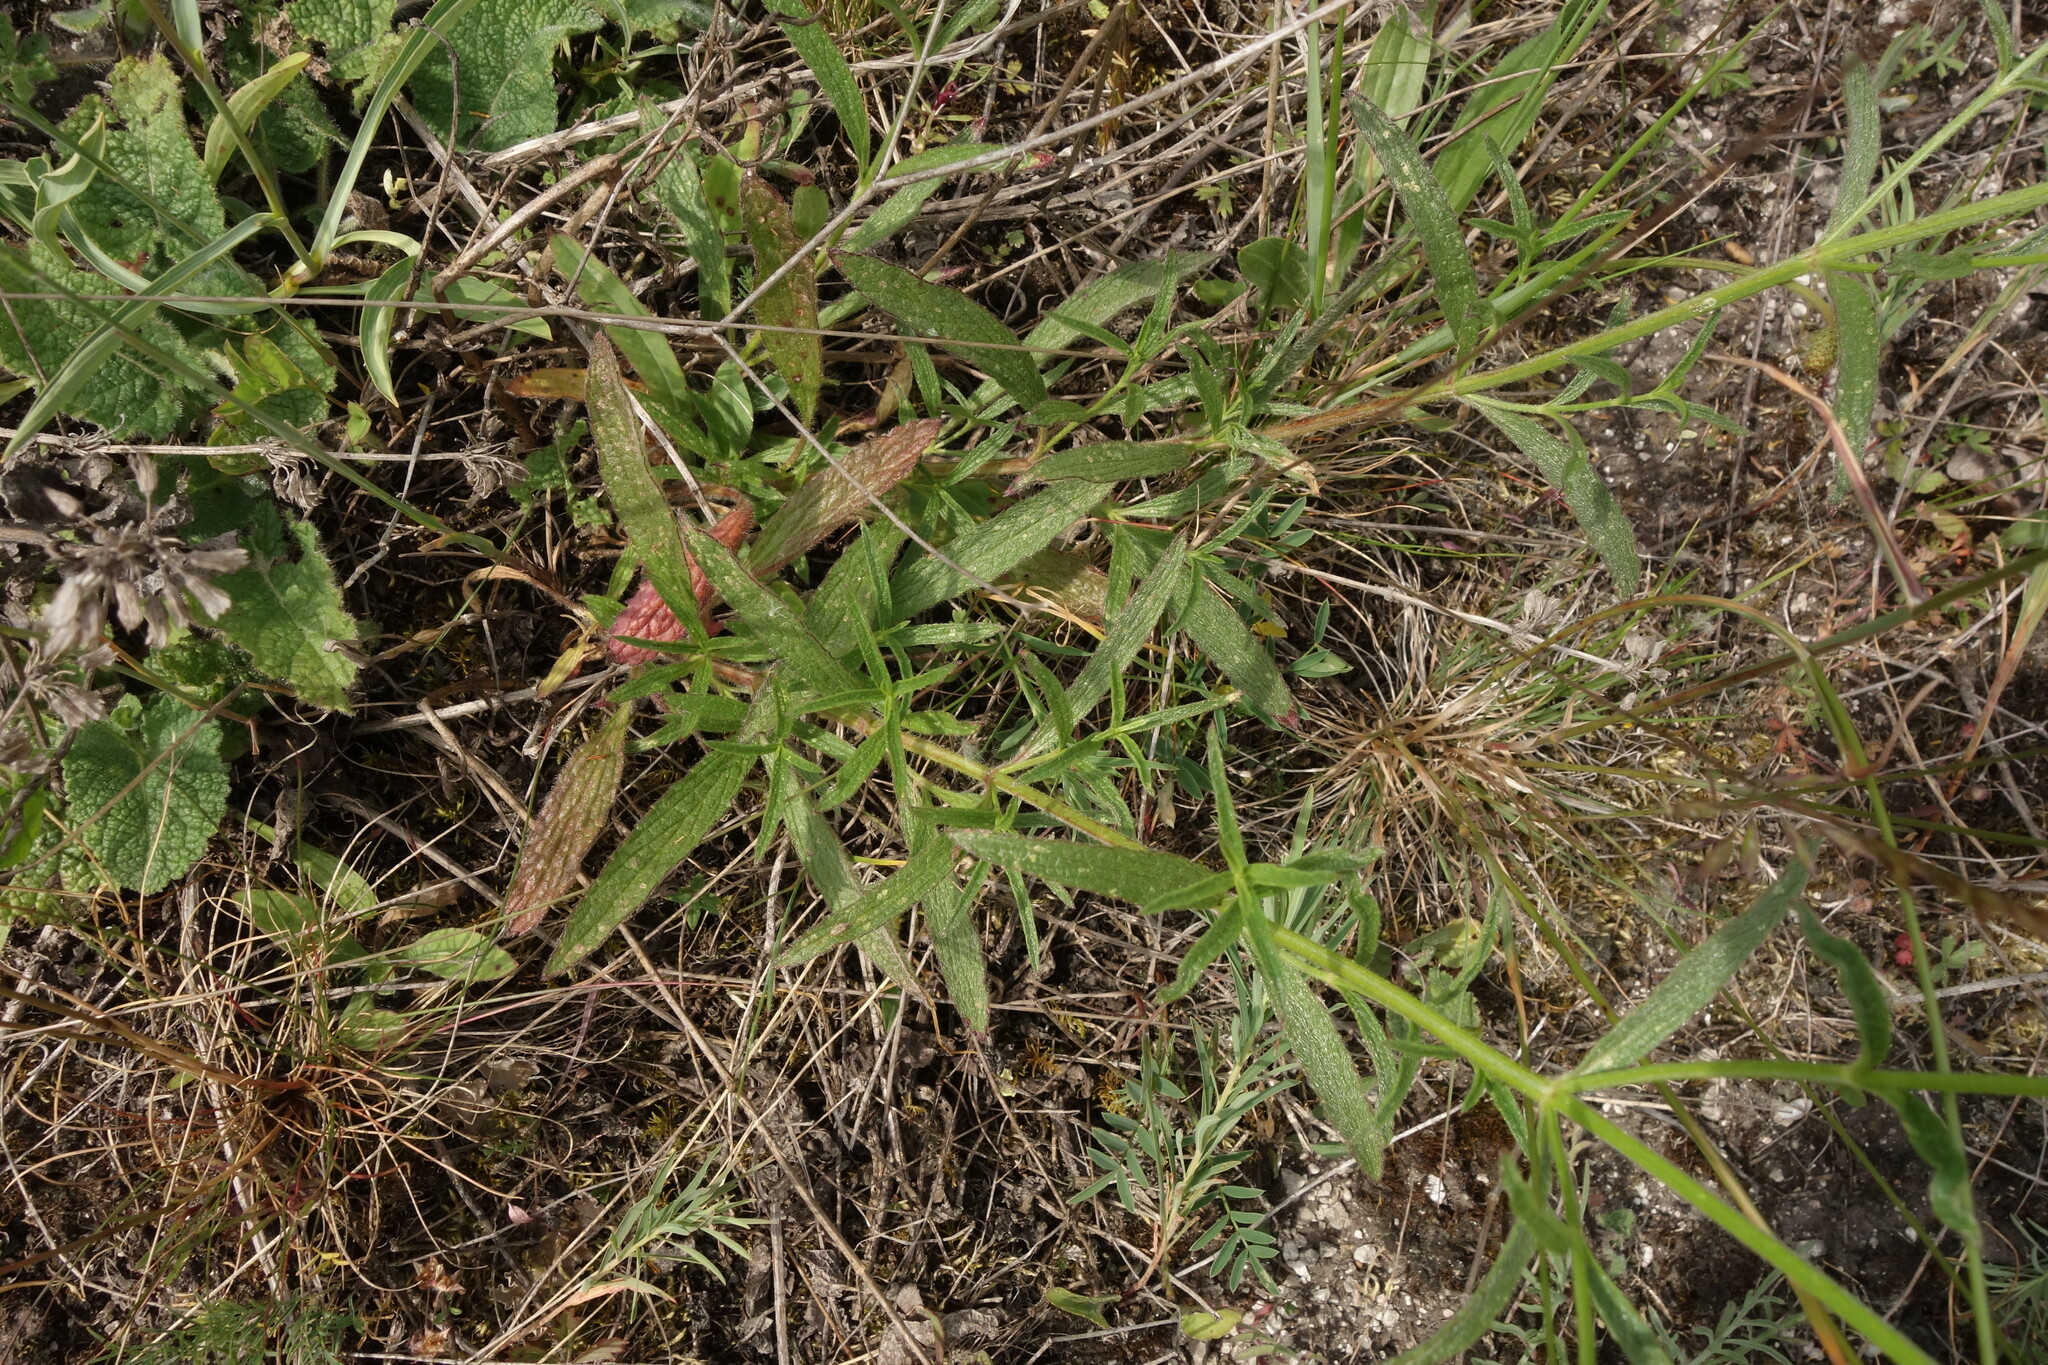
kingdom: Plantae
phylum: Tracheophyta
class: Magnoliopsida
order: Lamiales
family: Lamiaceae
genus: Stachys
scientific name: Stachys recta
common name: Perennial yellow-woundwort
